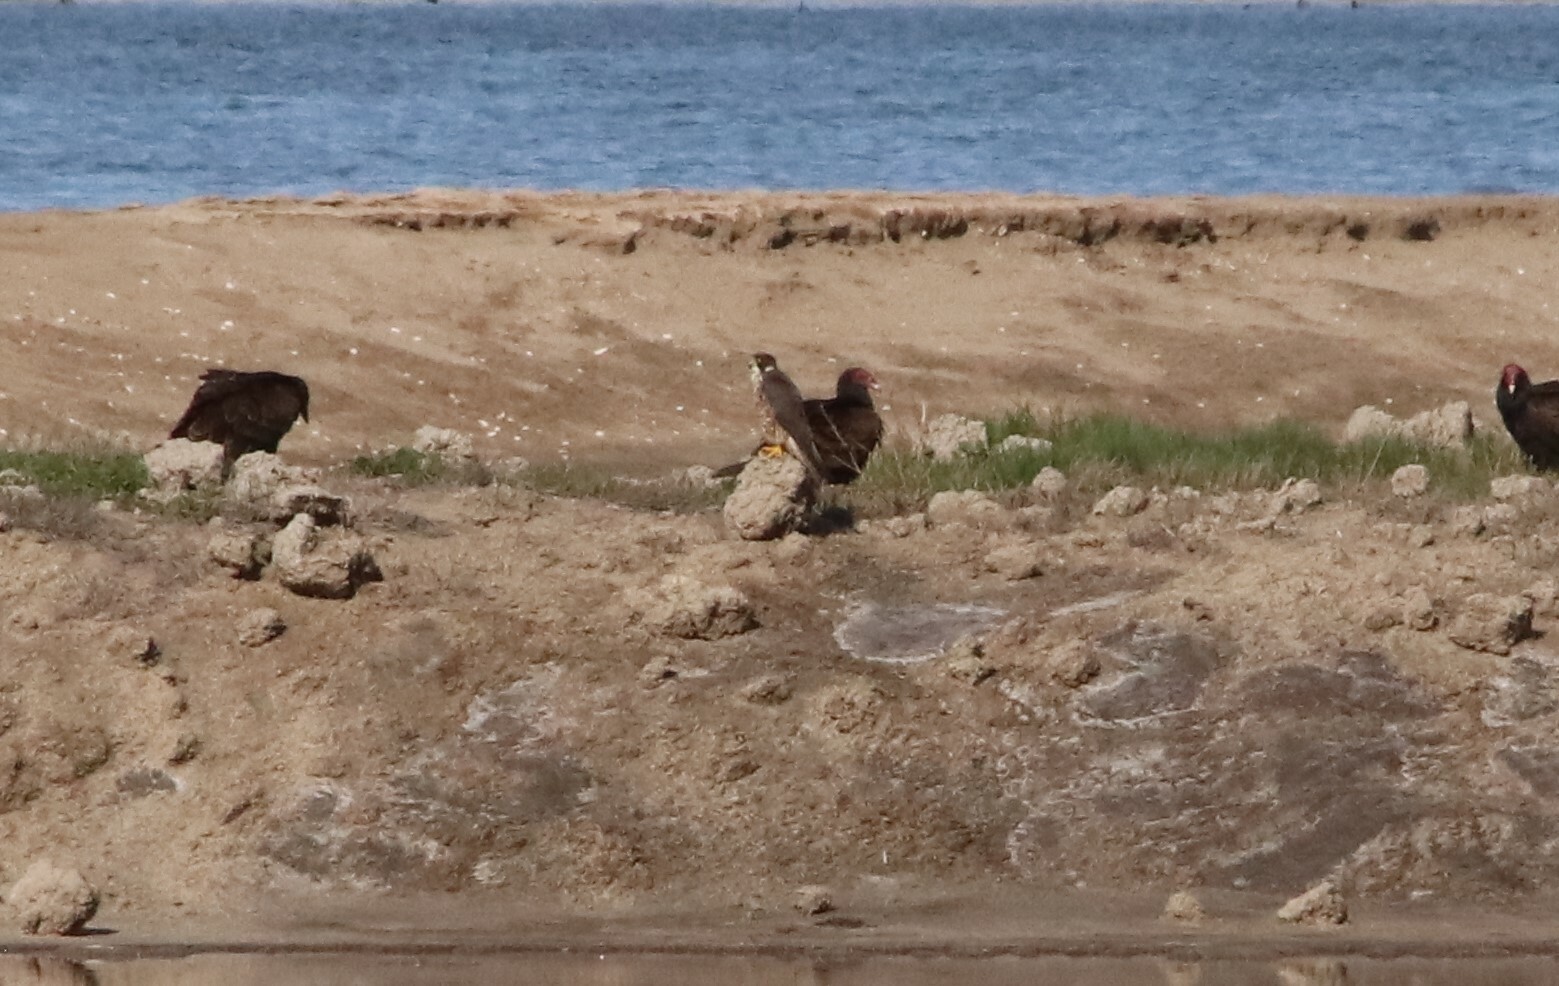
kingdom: Animalia
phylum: Chordata
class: Aves
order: Falconiformes
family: Falconidae
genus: Falco
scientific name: Falco peregrinus
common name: Peregrine falcon
